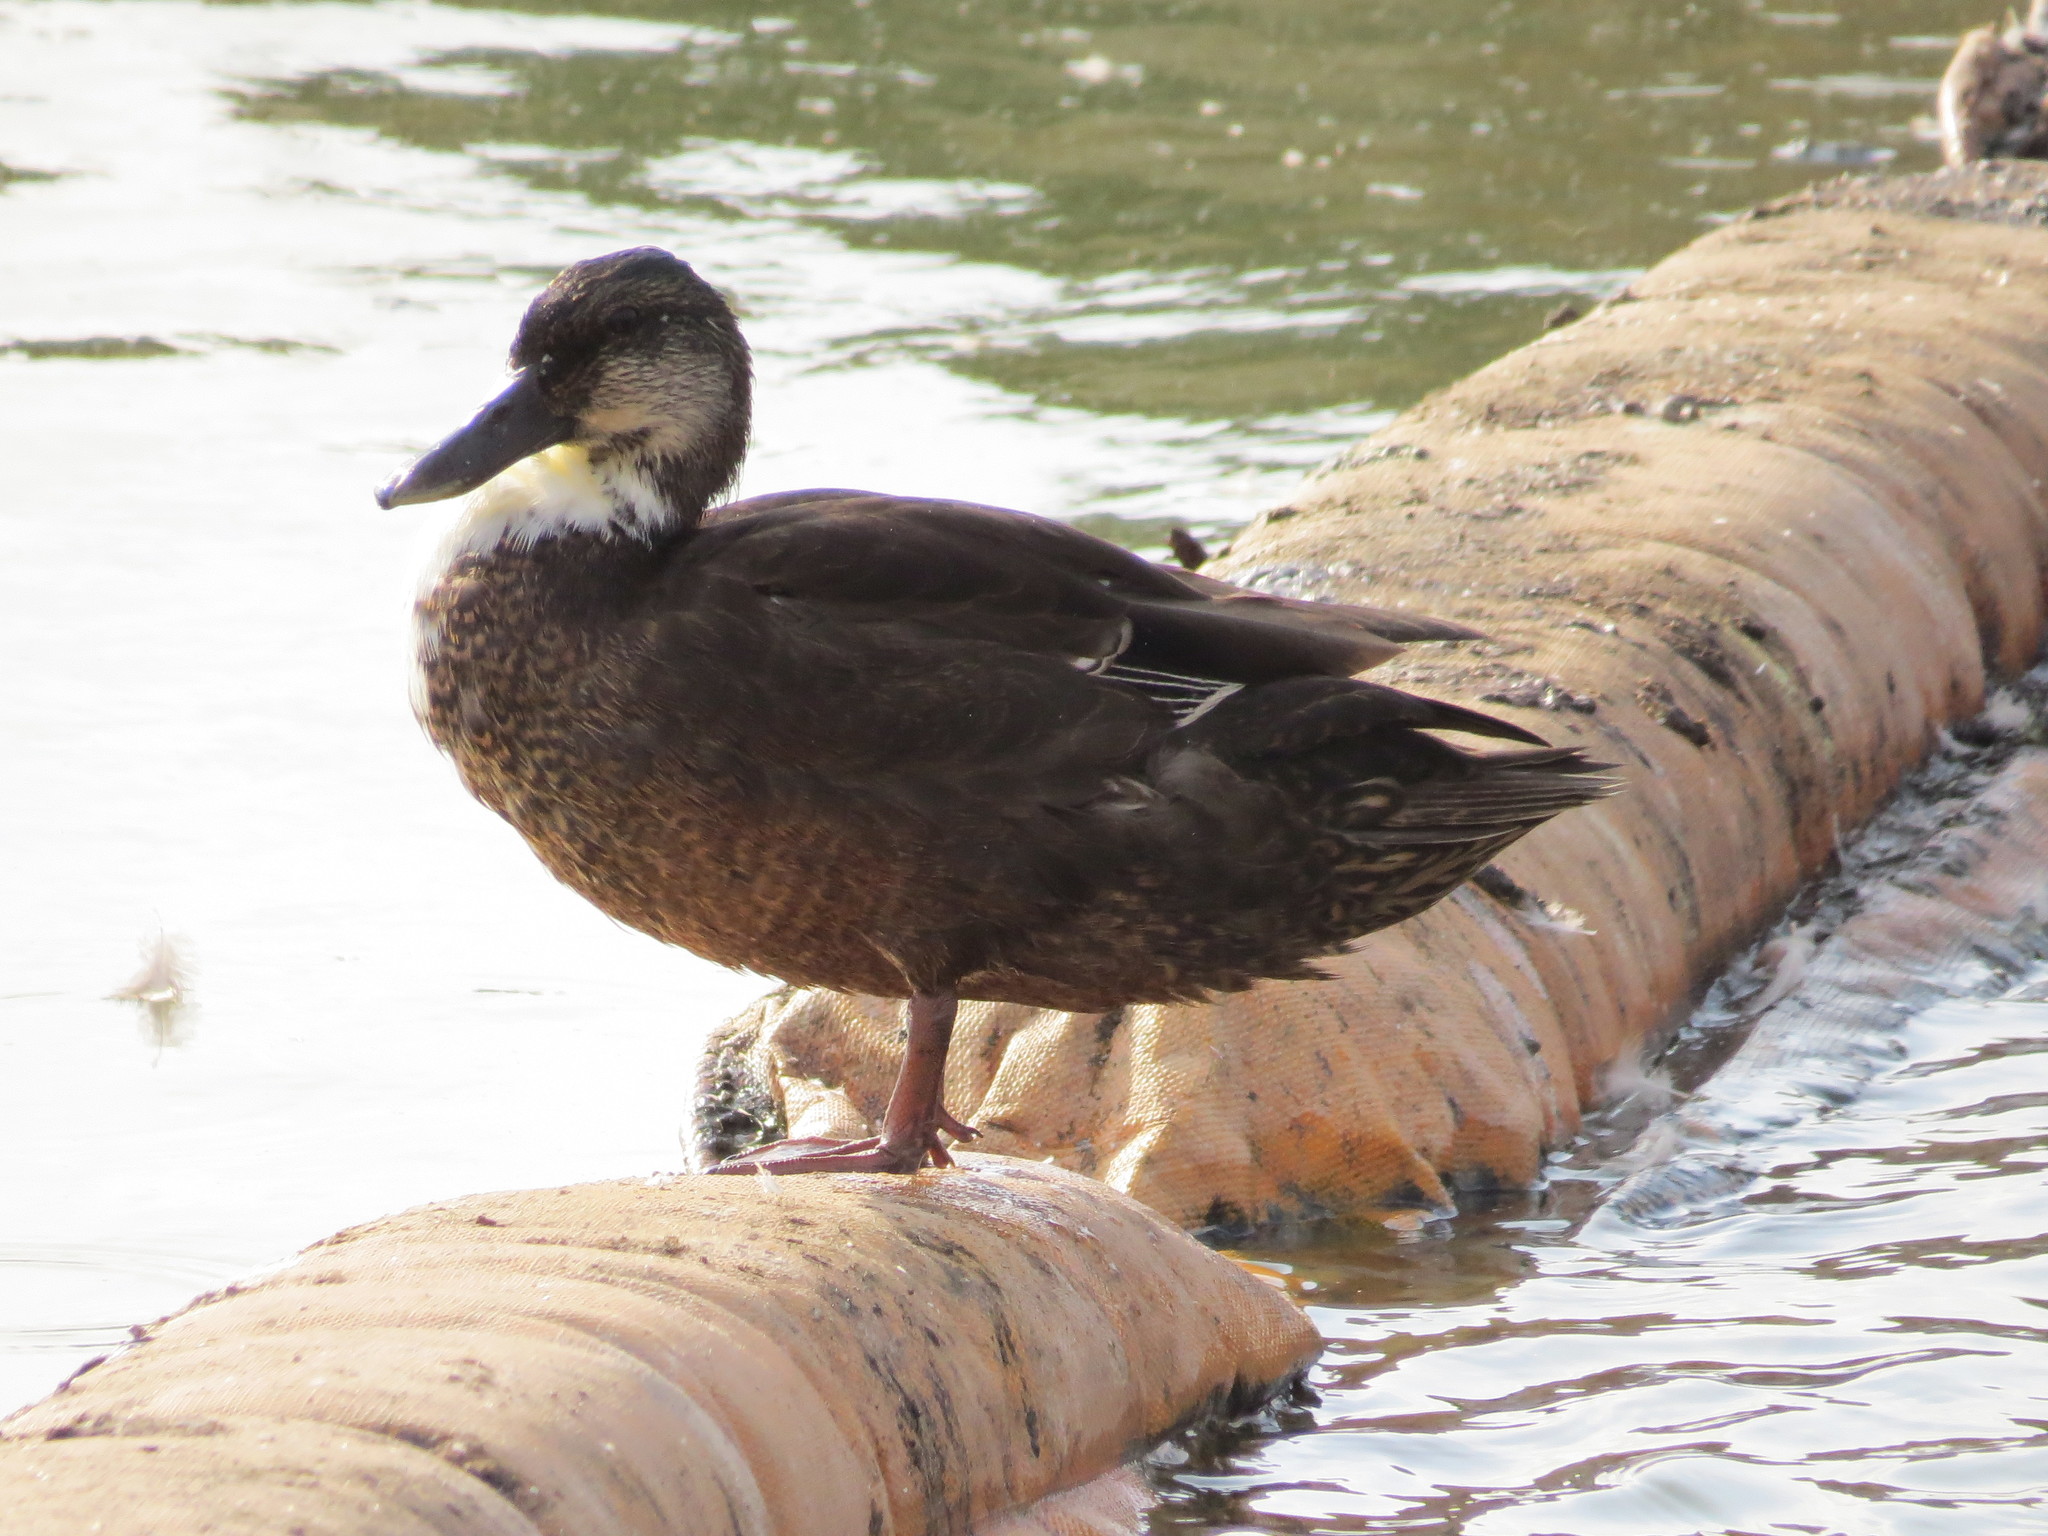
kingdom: Animalia
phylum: Chordata
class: Aves
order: Anseriformes
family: Anatidae
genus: Anas
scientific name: Anas platyrhynchos
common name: Mallard
